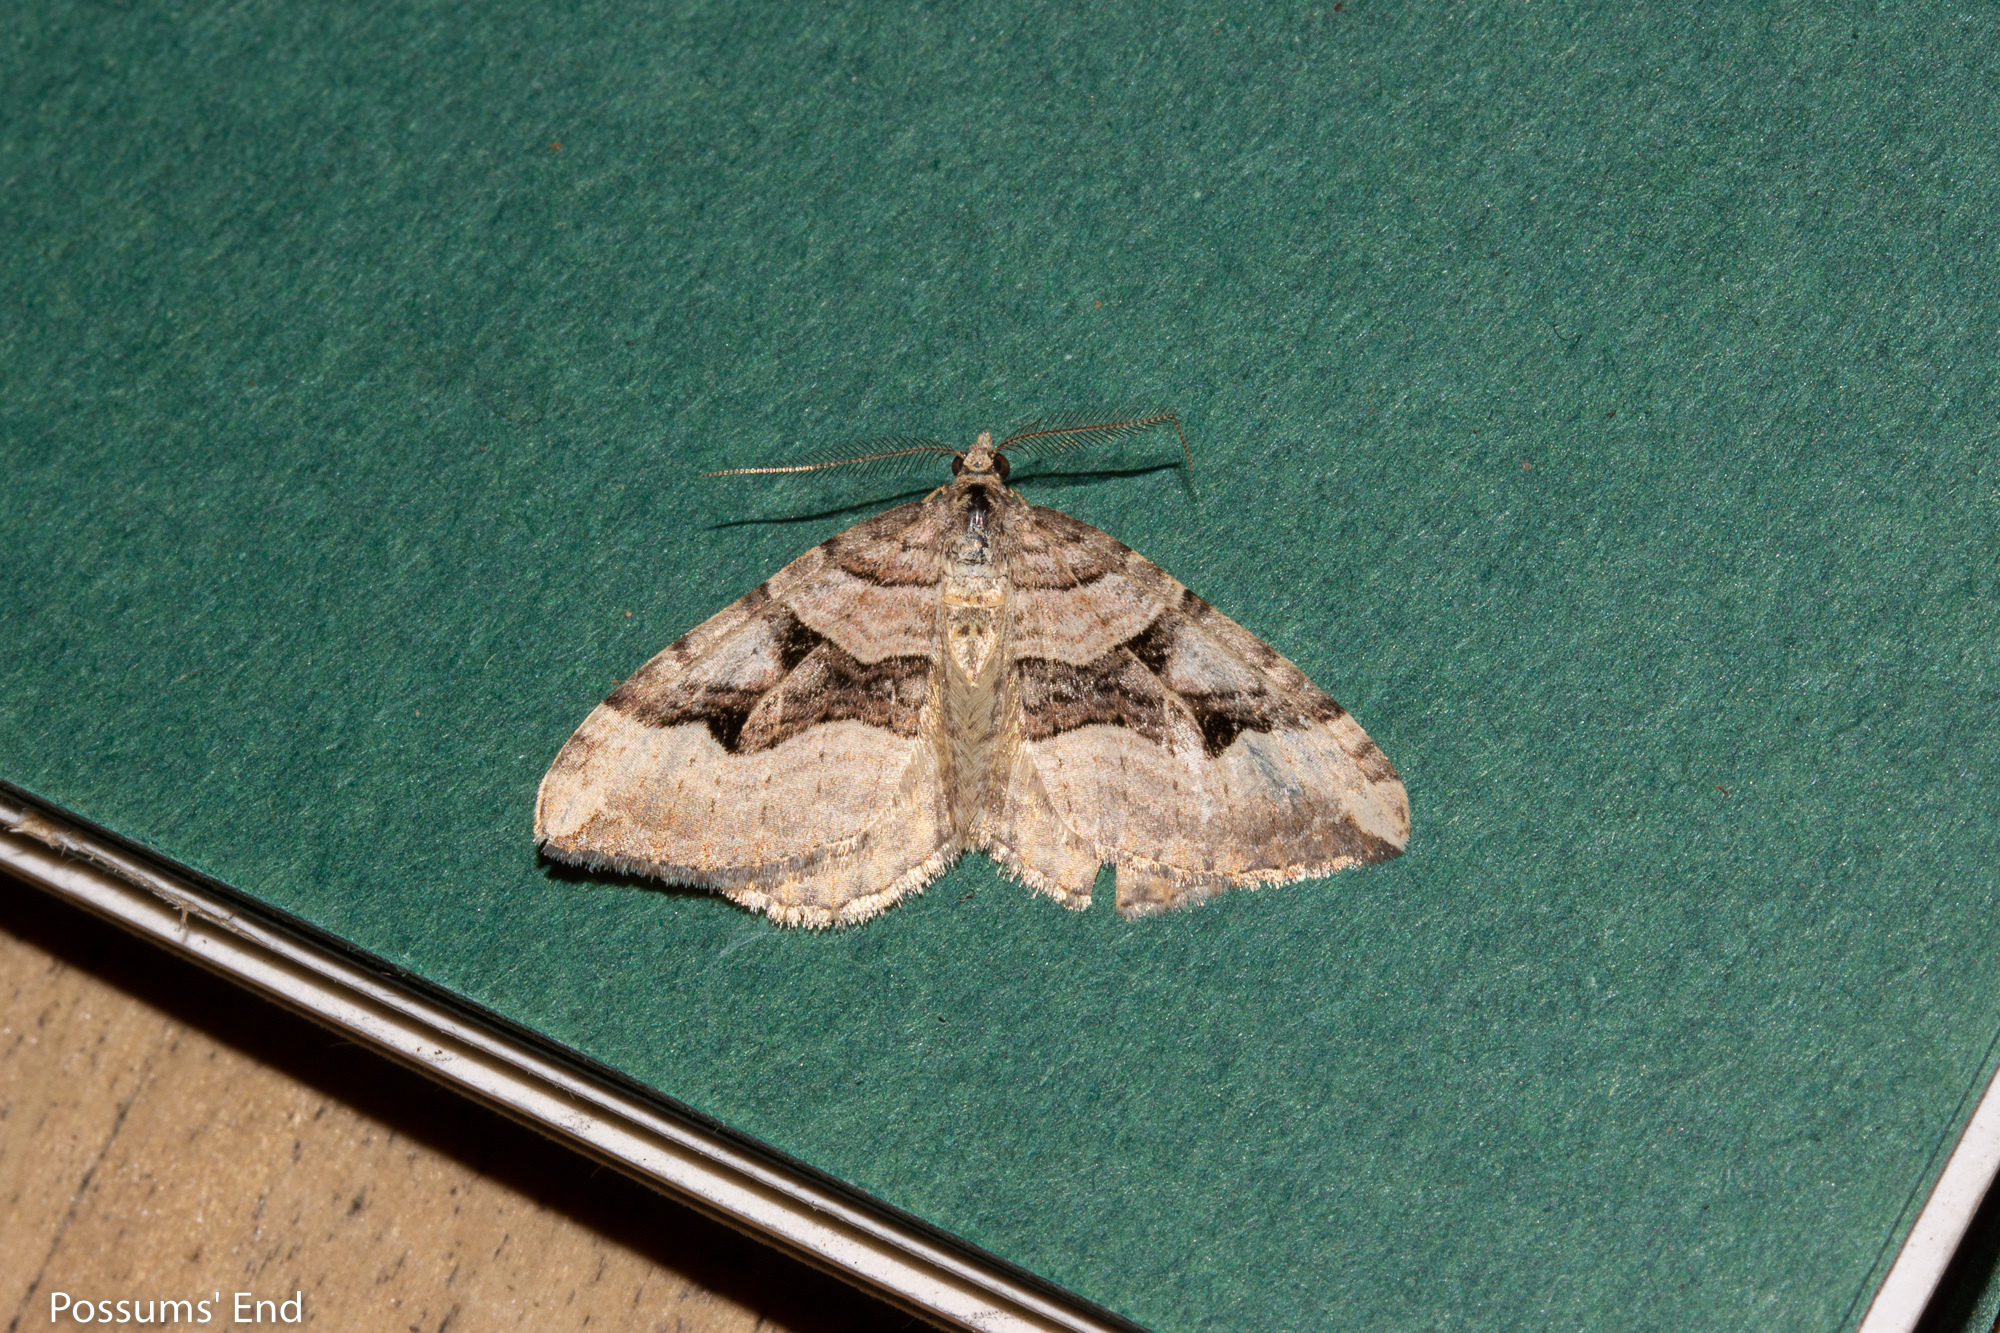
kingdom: Animalia
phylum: Arthropoda
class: Insecta
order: Lepidoptera
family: Geometridae
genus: Xanthorhoe
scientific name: Xanthorhoe semifissata
